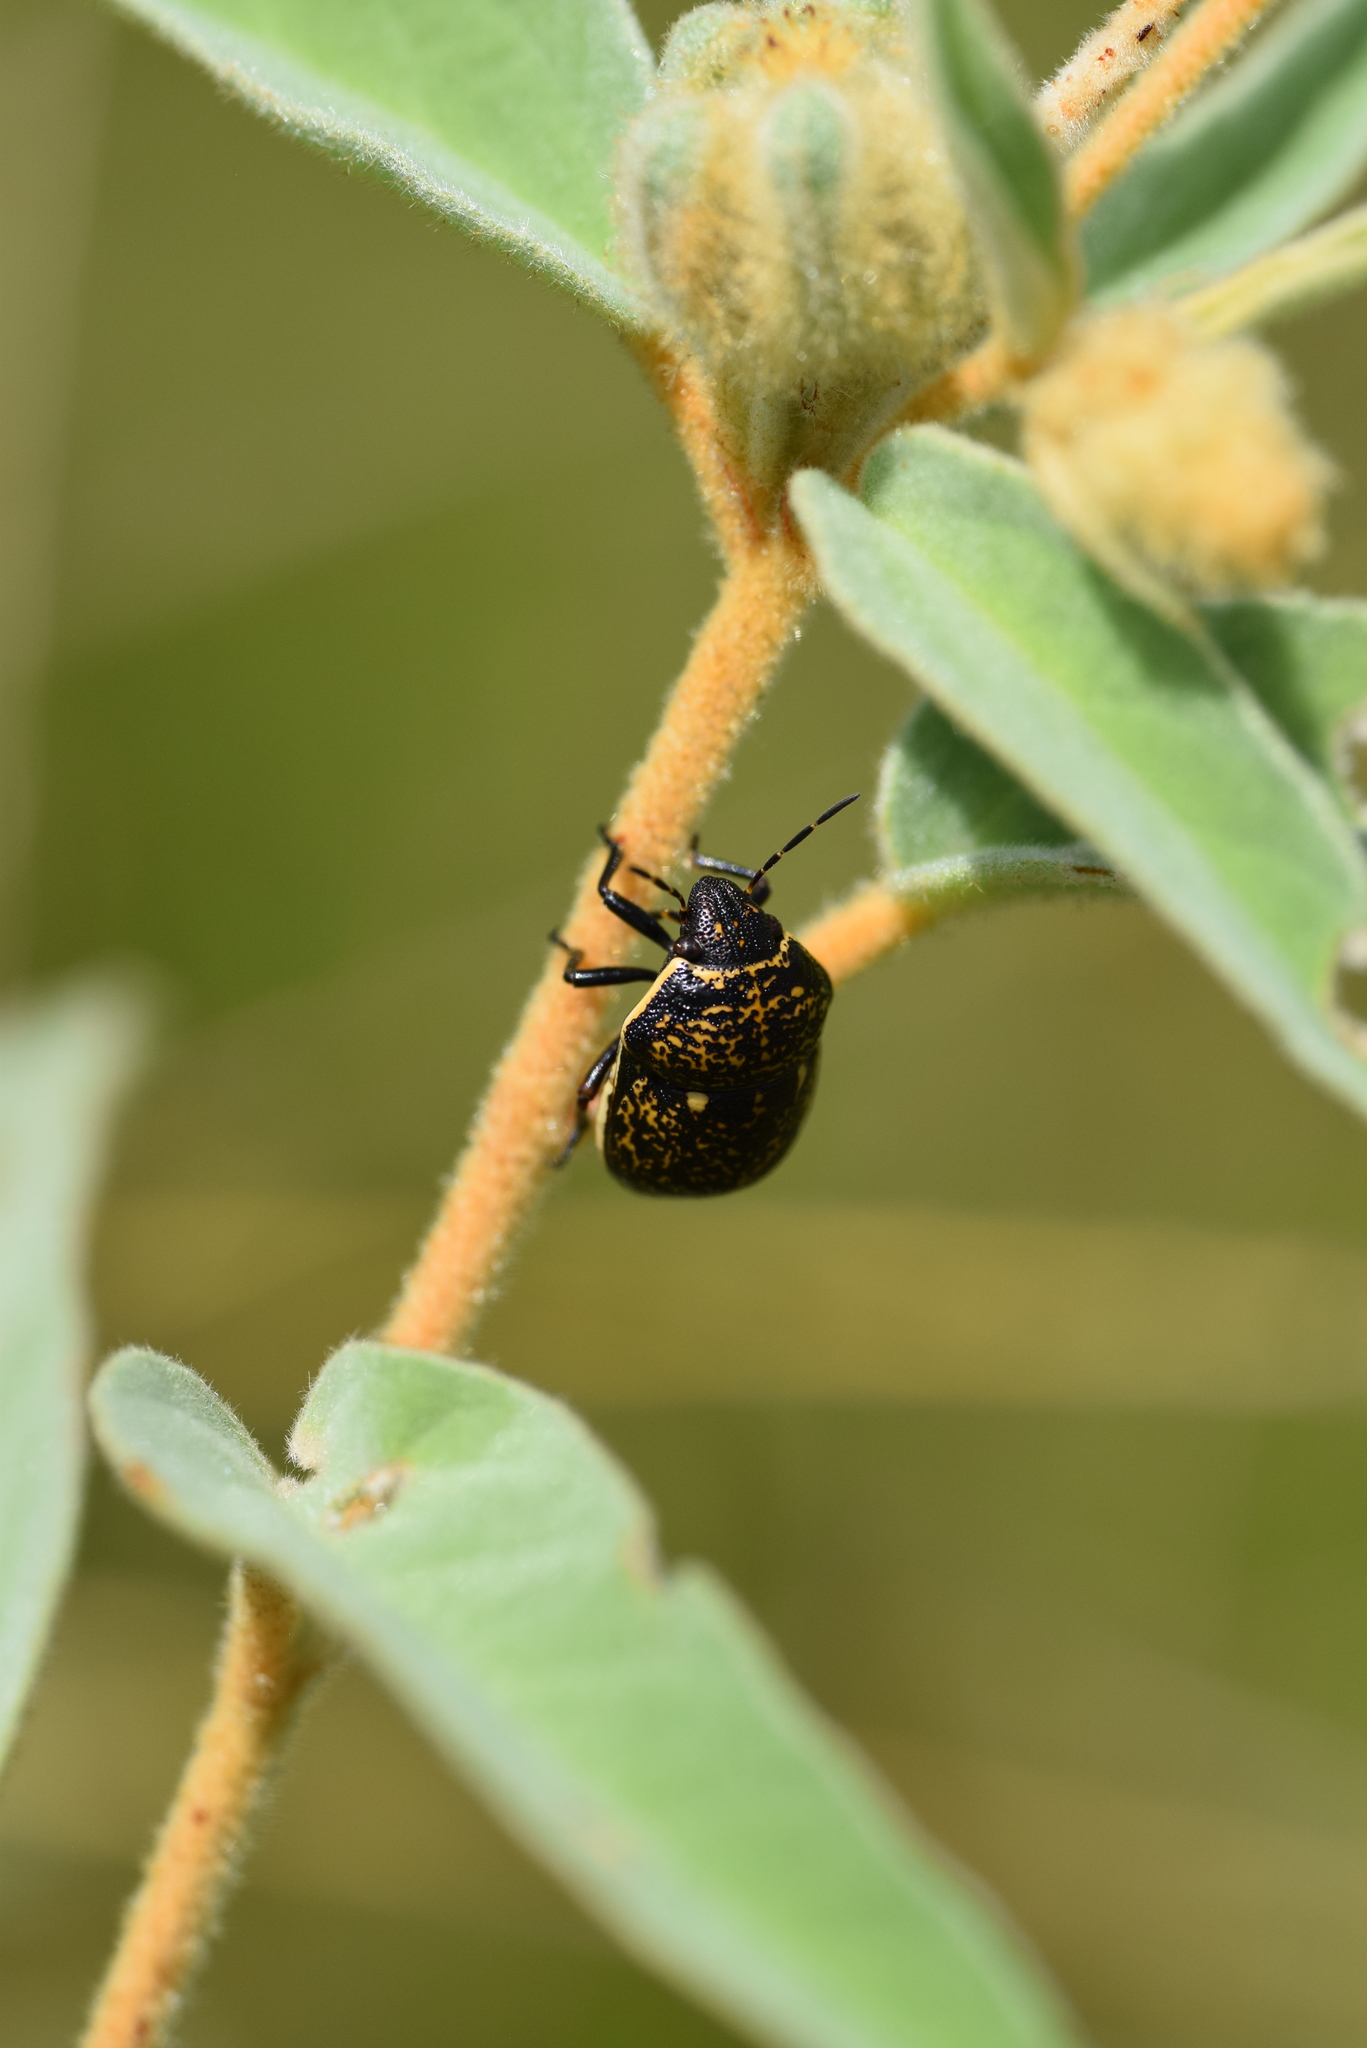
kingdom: Animalia
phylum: Arthropoda
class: Insecta
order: Hemiptera
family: Scutelleridae
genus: Orsilochides
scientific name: Orsilochides guttata
